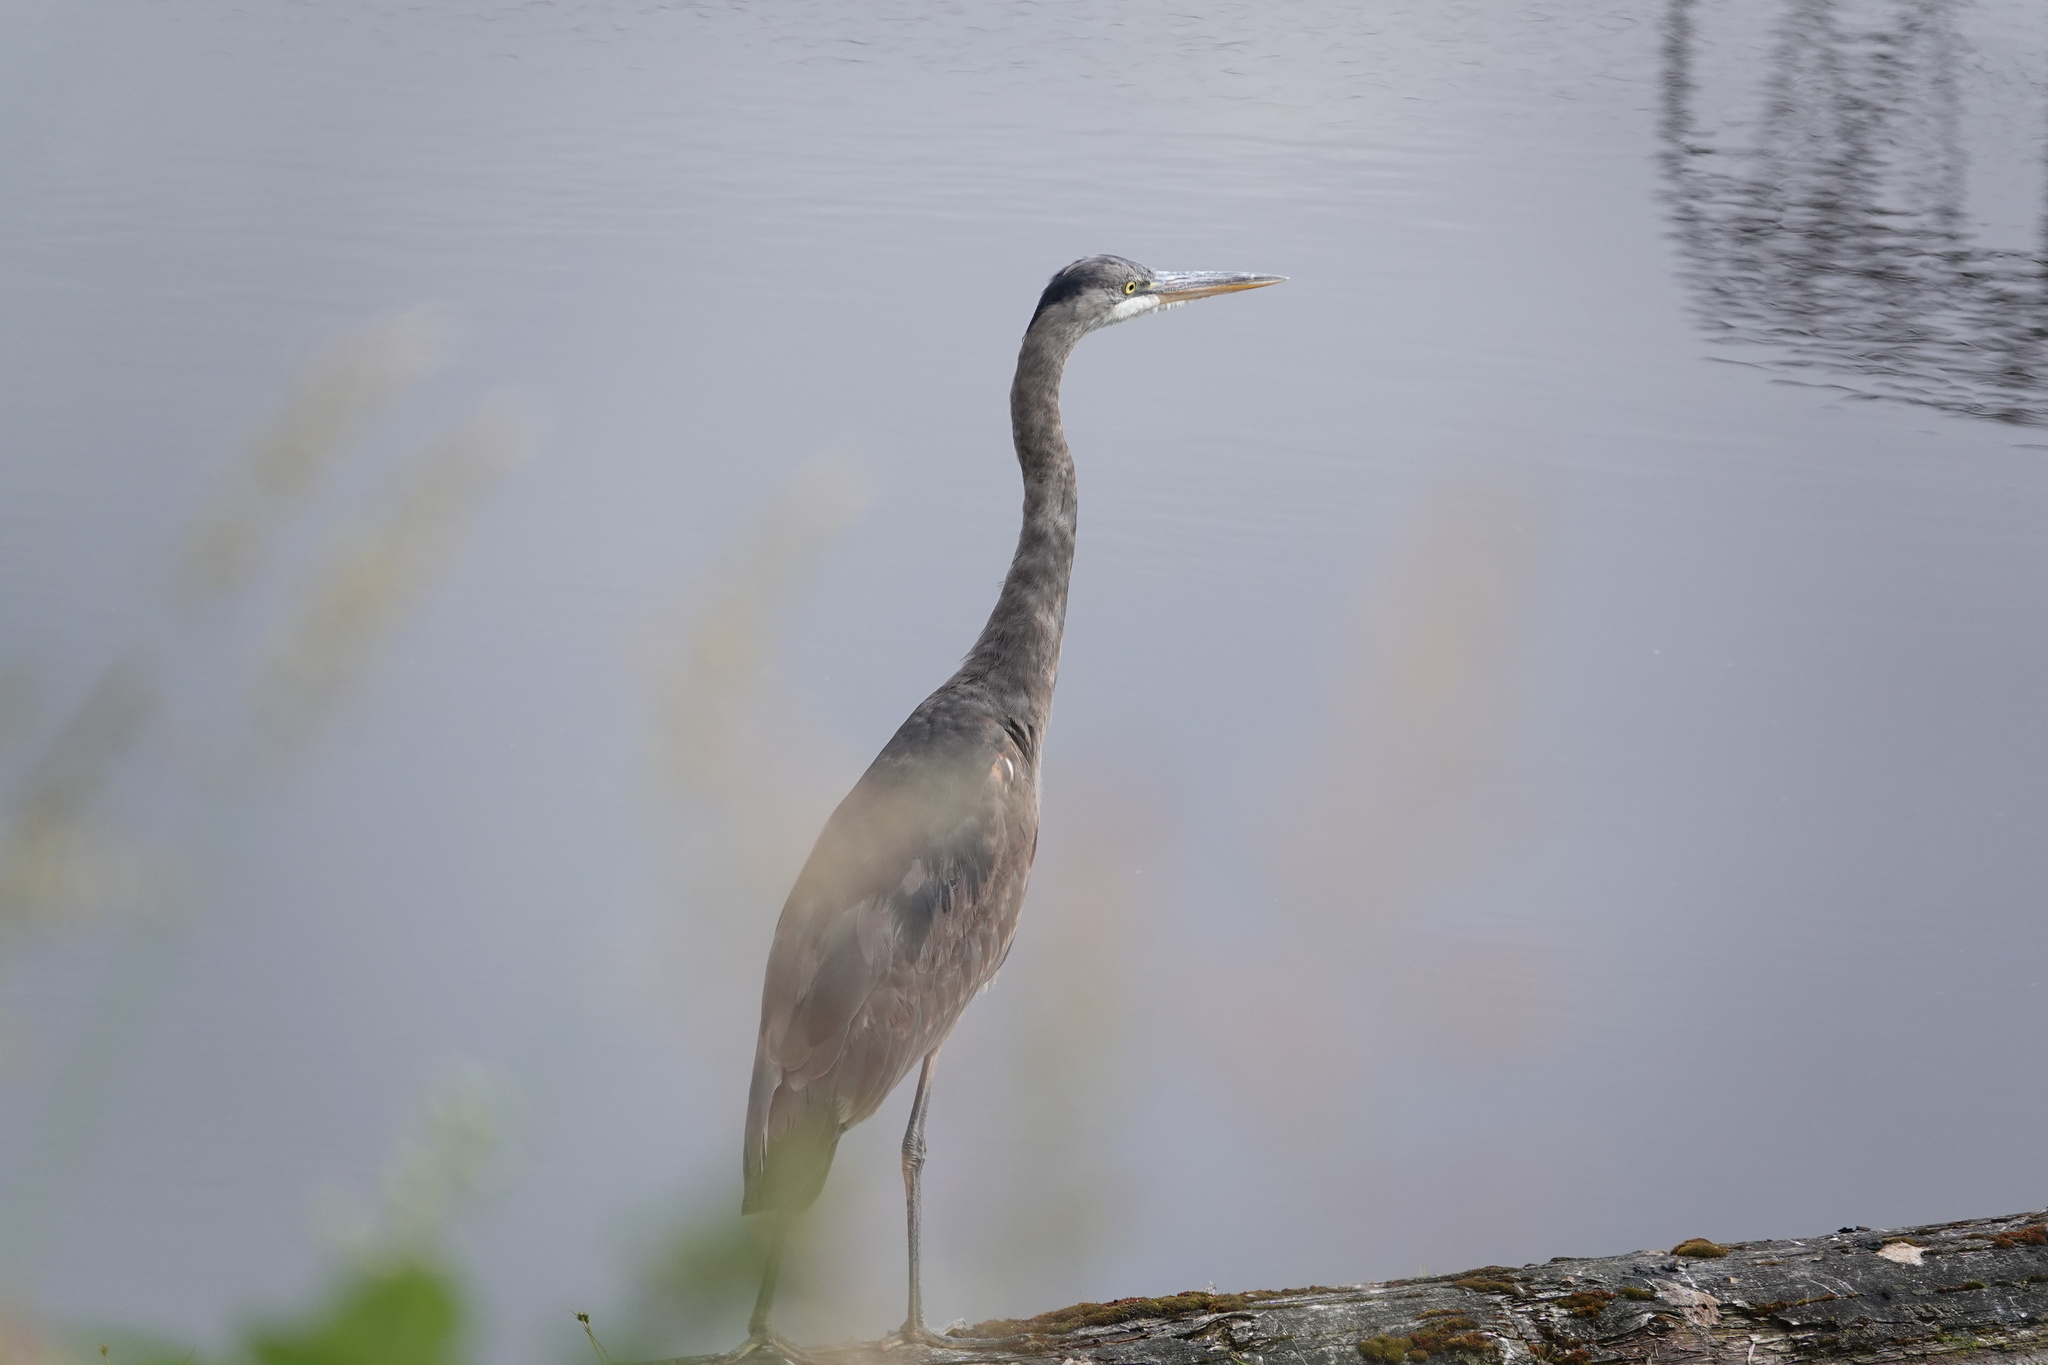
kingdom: Animalia
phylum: Chordata
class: Aves
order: Pelecaniformes
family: Ardeidae
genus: Ardea
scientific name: Ardea herodias
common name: Great blue heron
